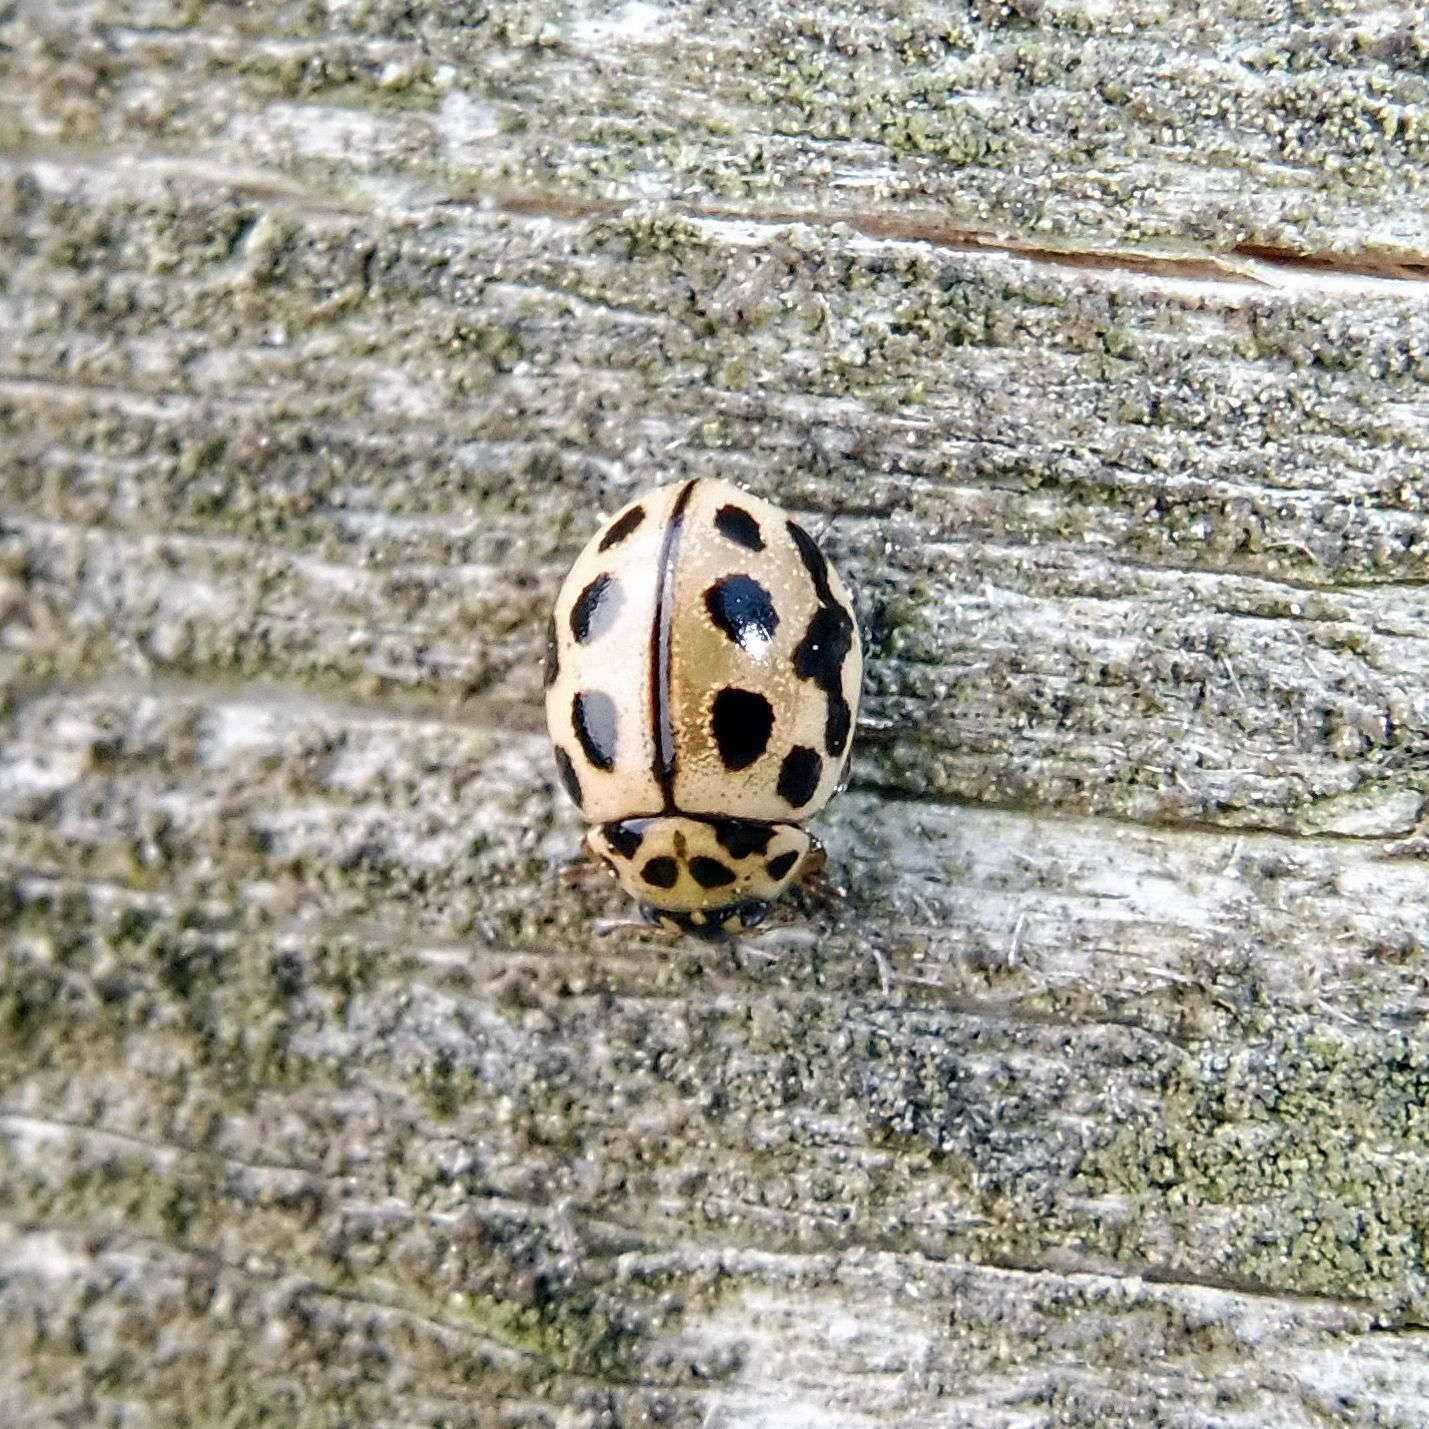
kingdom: Animalia
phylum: Arthropoda
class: Insecta
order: Coleoptera
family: Coccinellidae
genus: Tytthaspis
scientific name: Tytthaspis sedecimpunctata
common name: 16-spot ladybird
